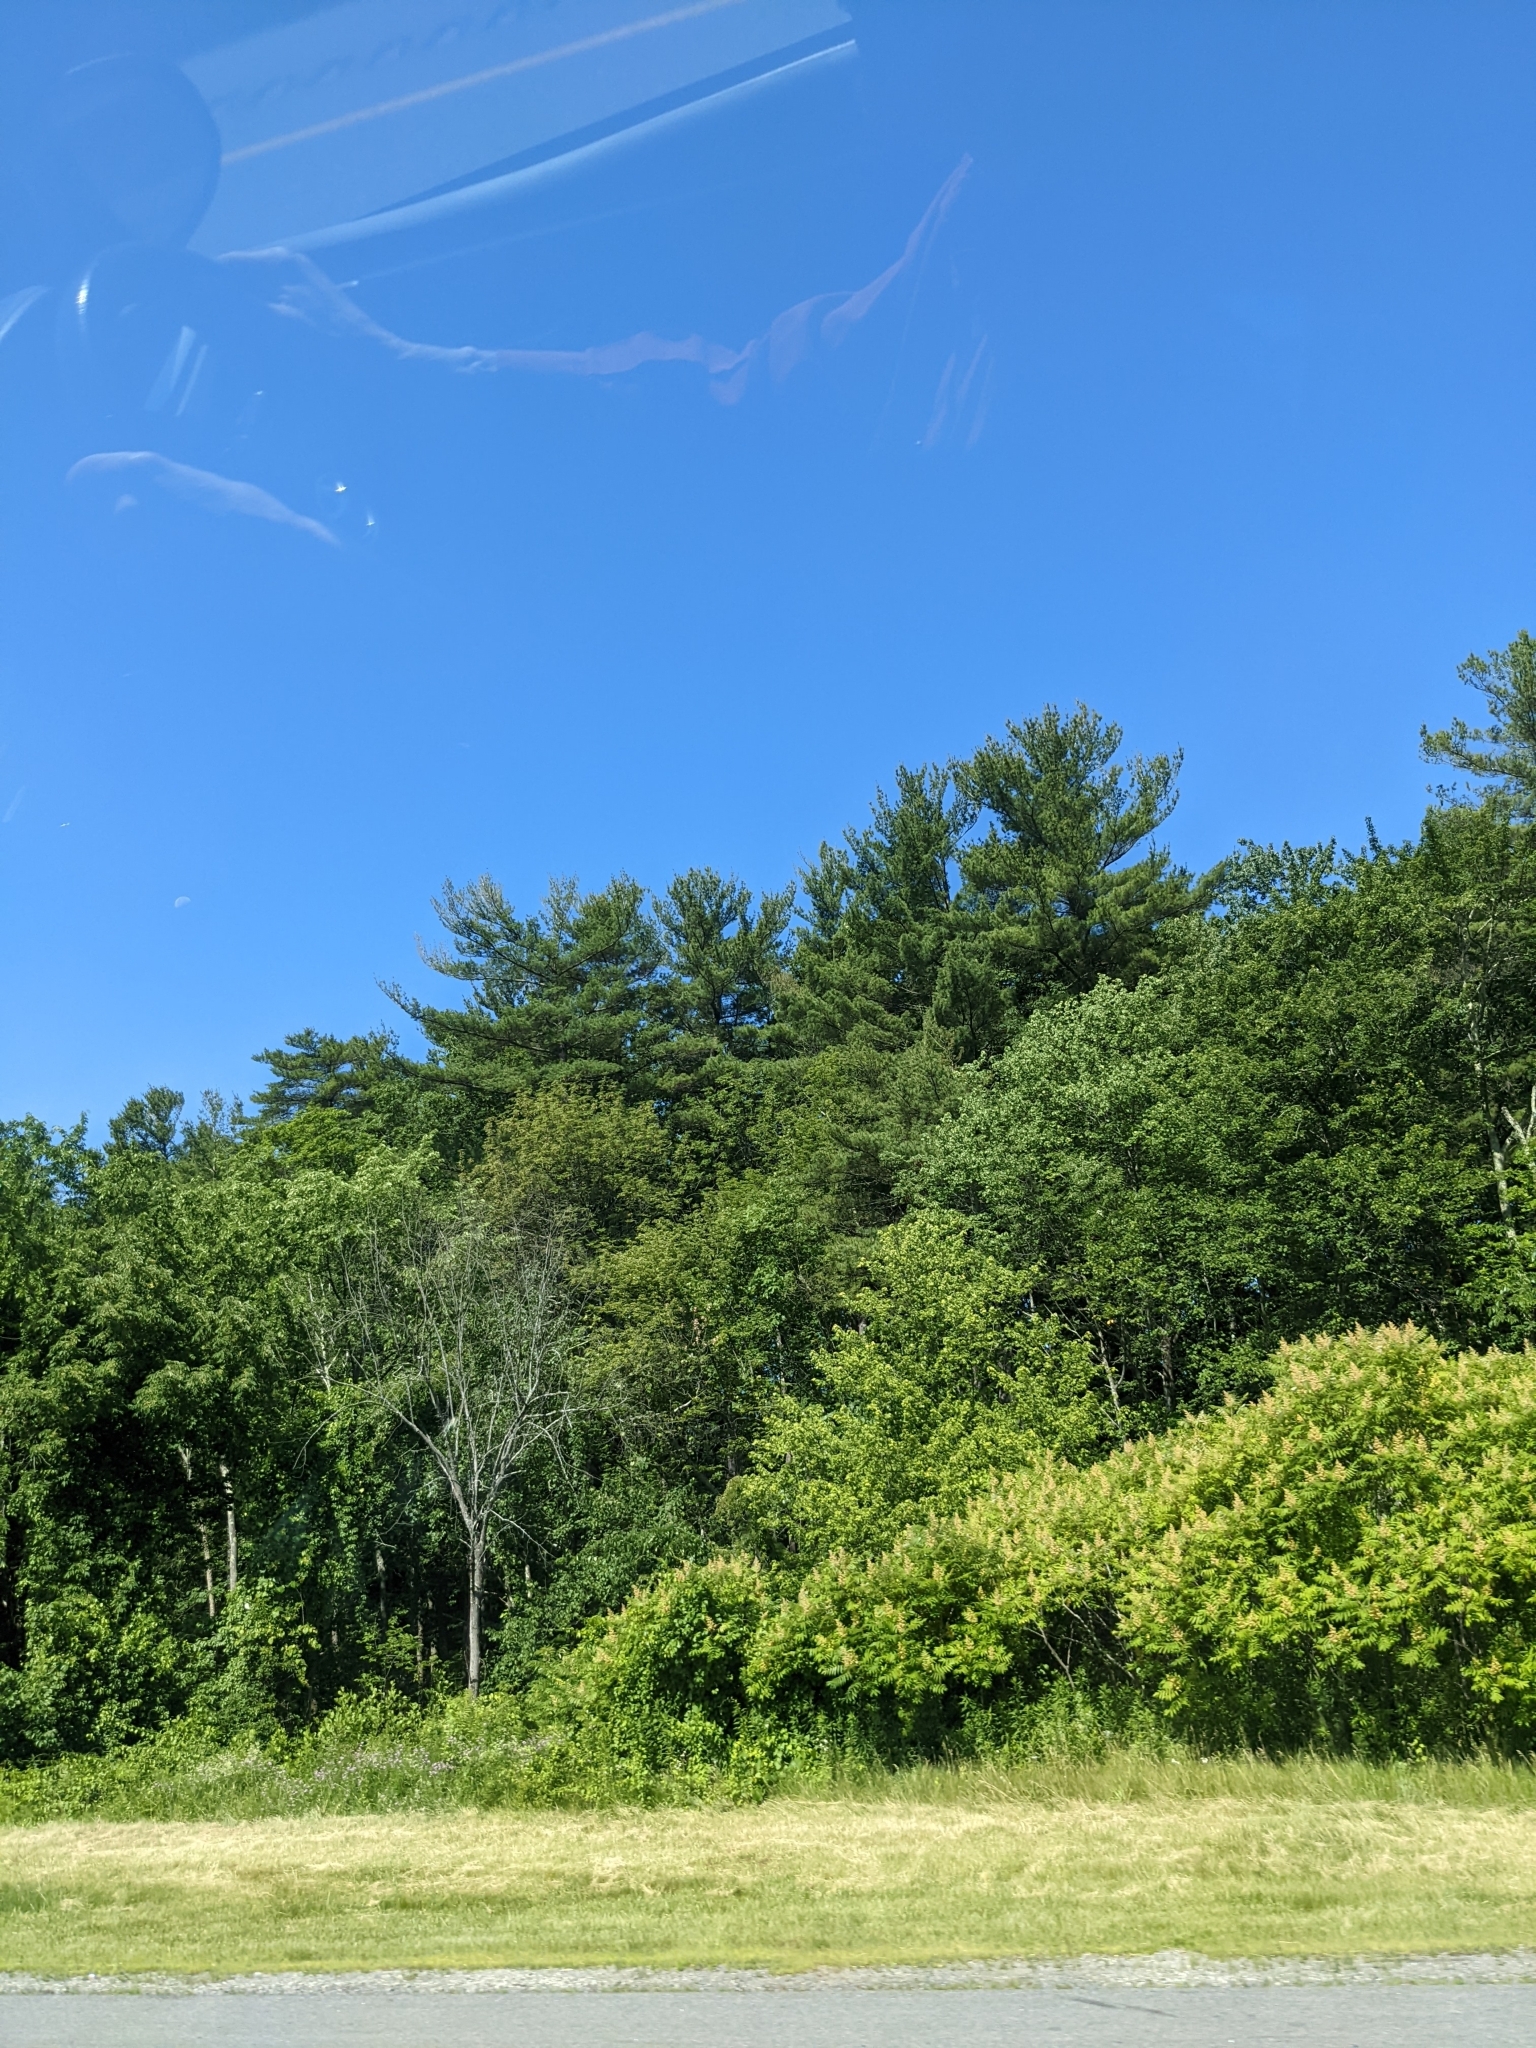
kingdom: Plantae
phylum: Tracheophyta
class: Pinopsida
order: Pinales
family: Pinaceae
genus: Pinus
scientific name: Pinus strobus
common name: Weymouth pine
